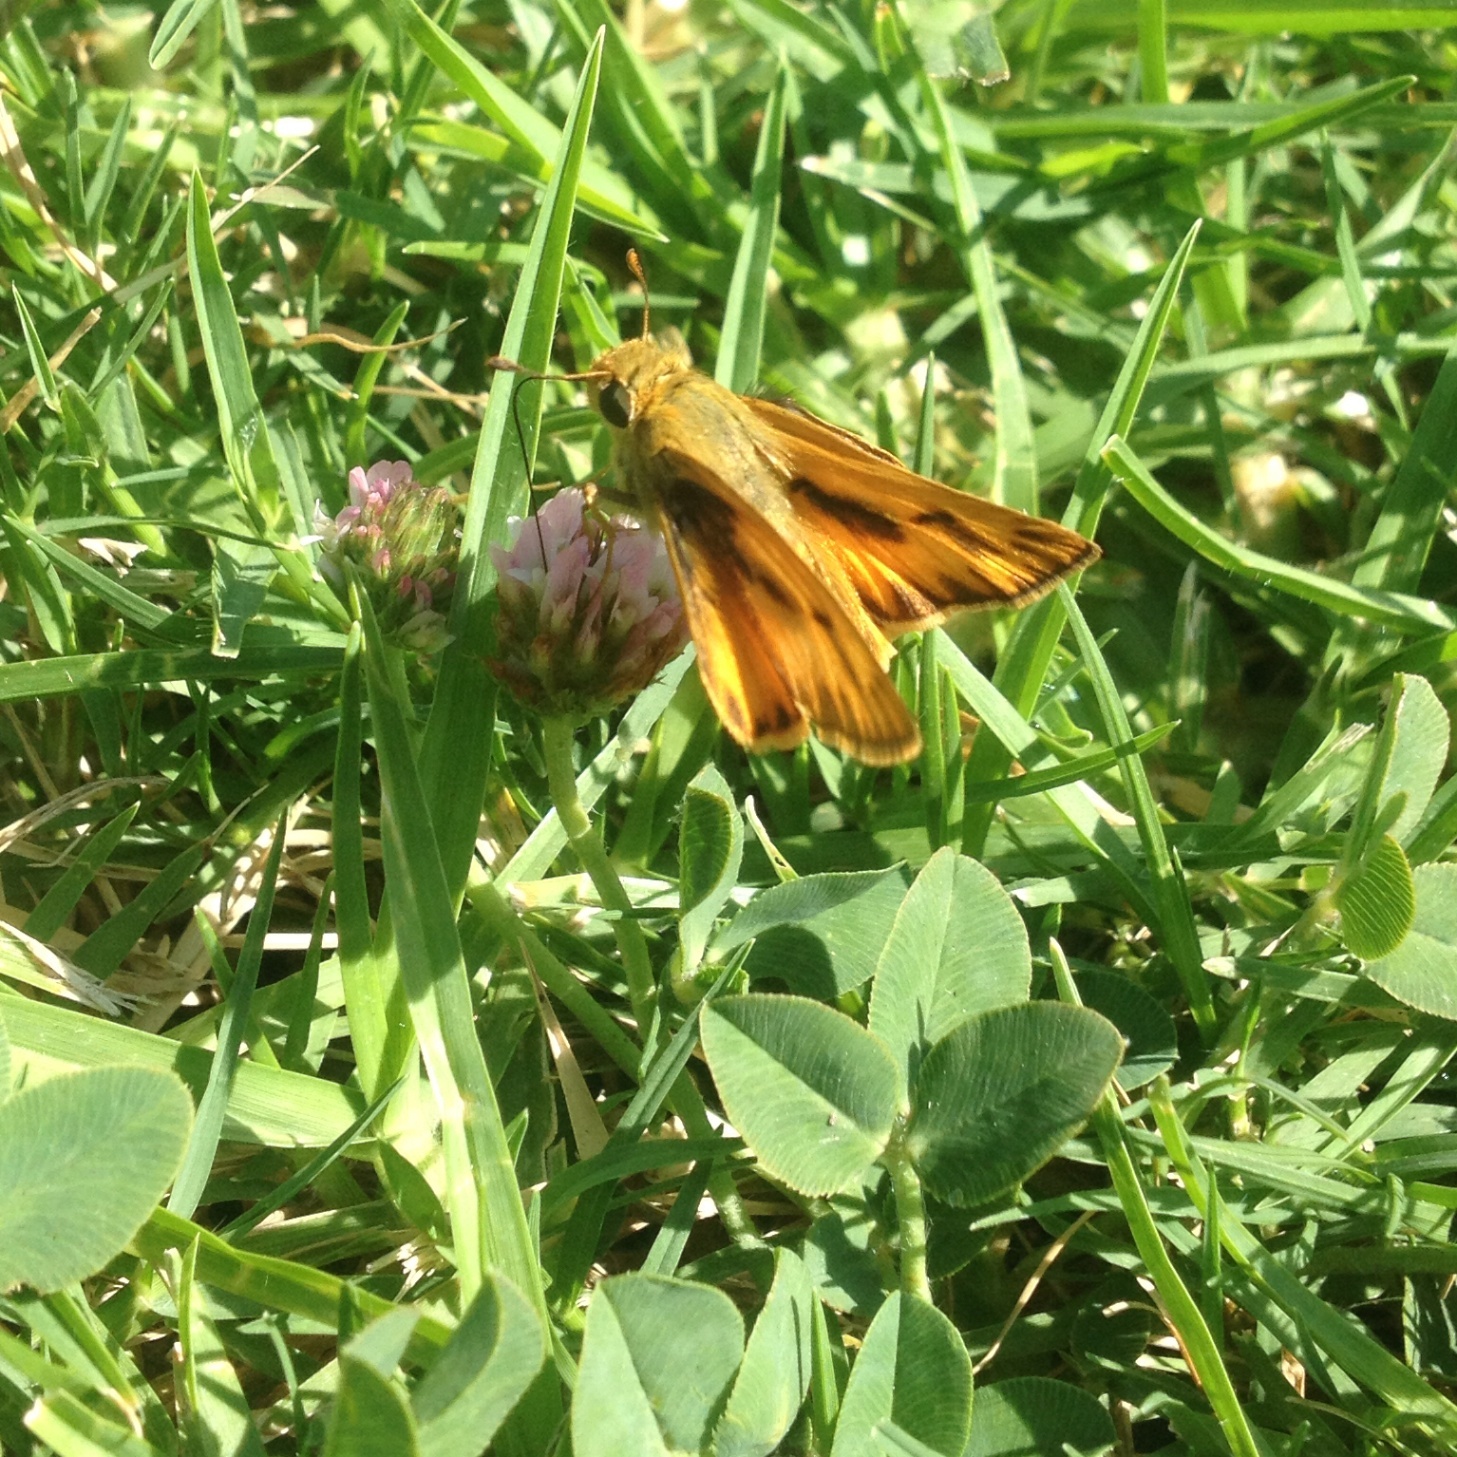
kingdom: Animalia
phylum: Arthropoda
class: Insecta
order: Lepidoptera
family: Hesperiidae
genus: Hylephila
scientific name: Hylephila phyleus
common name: Fiery skipper
